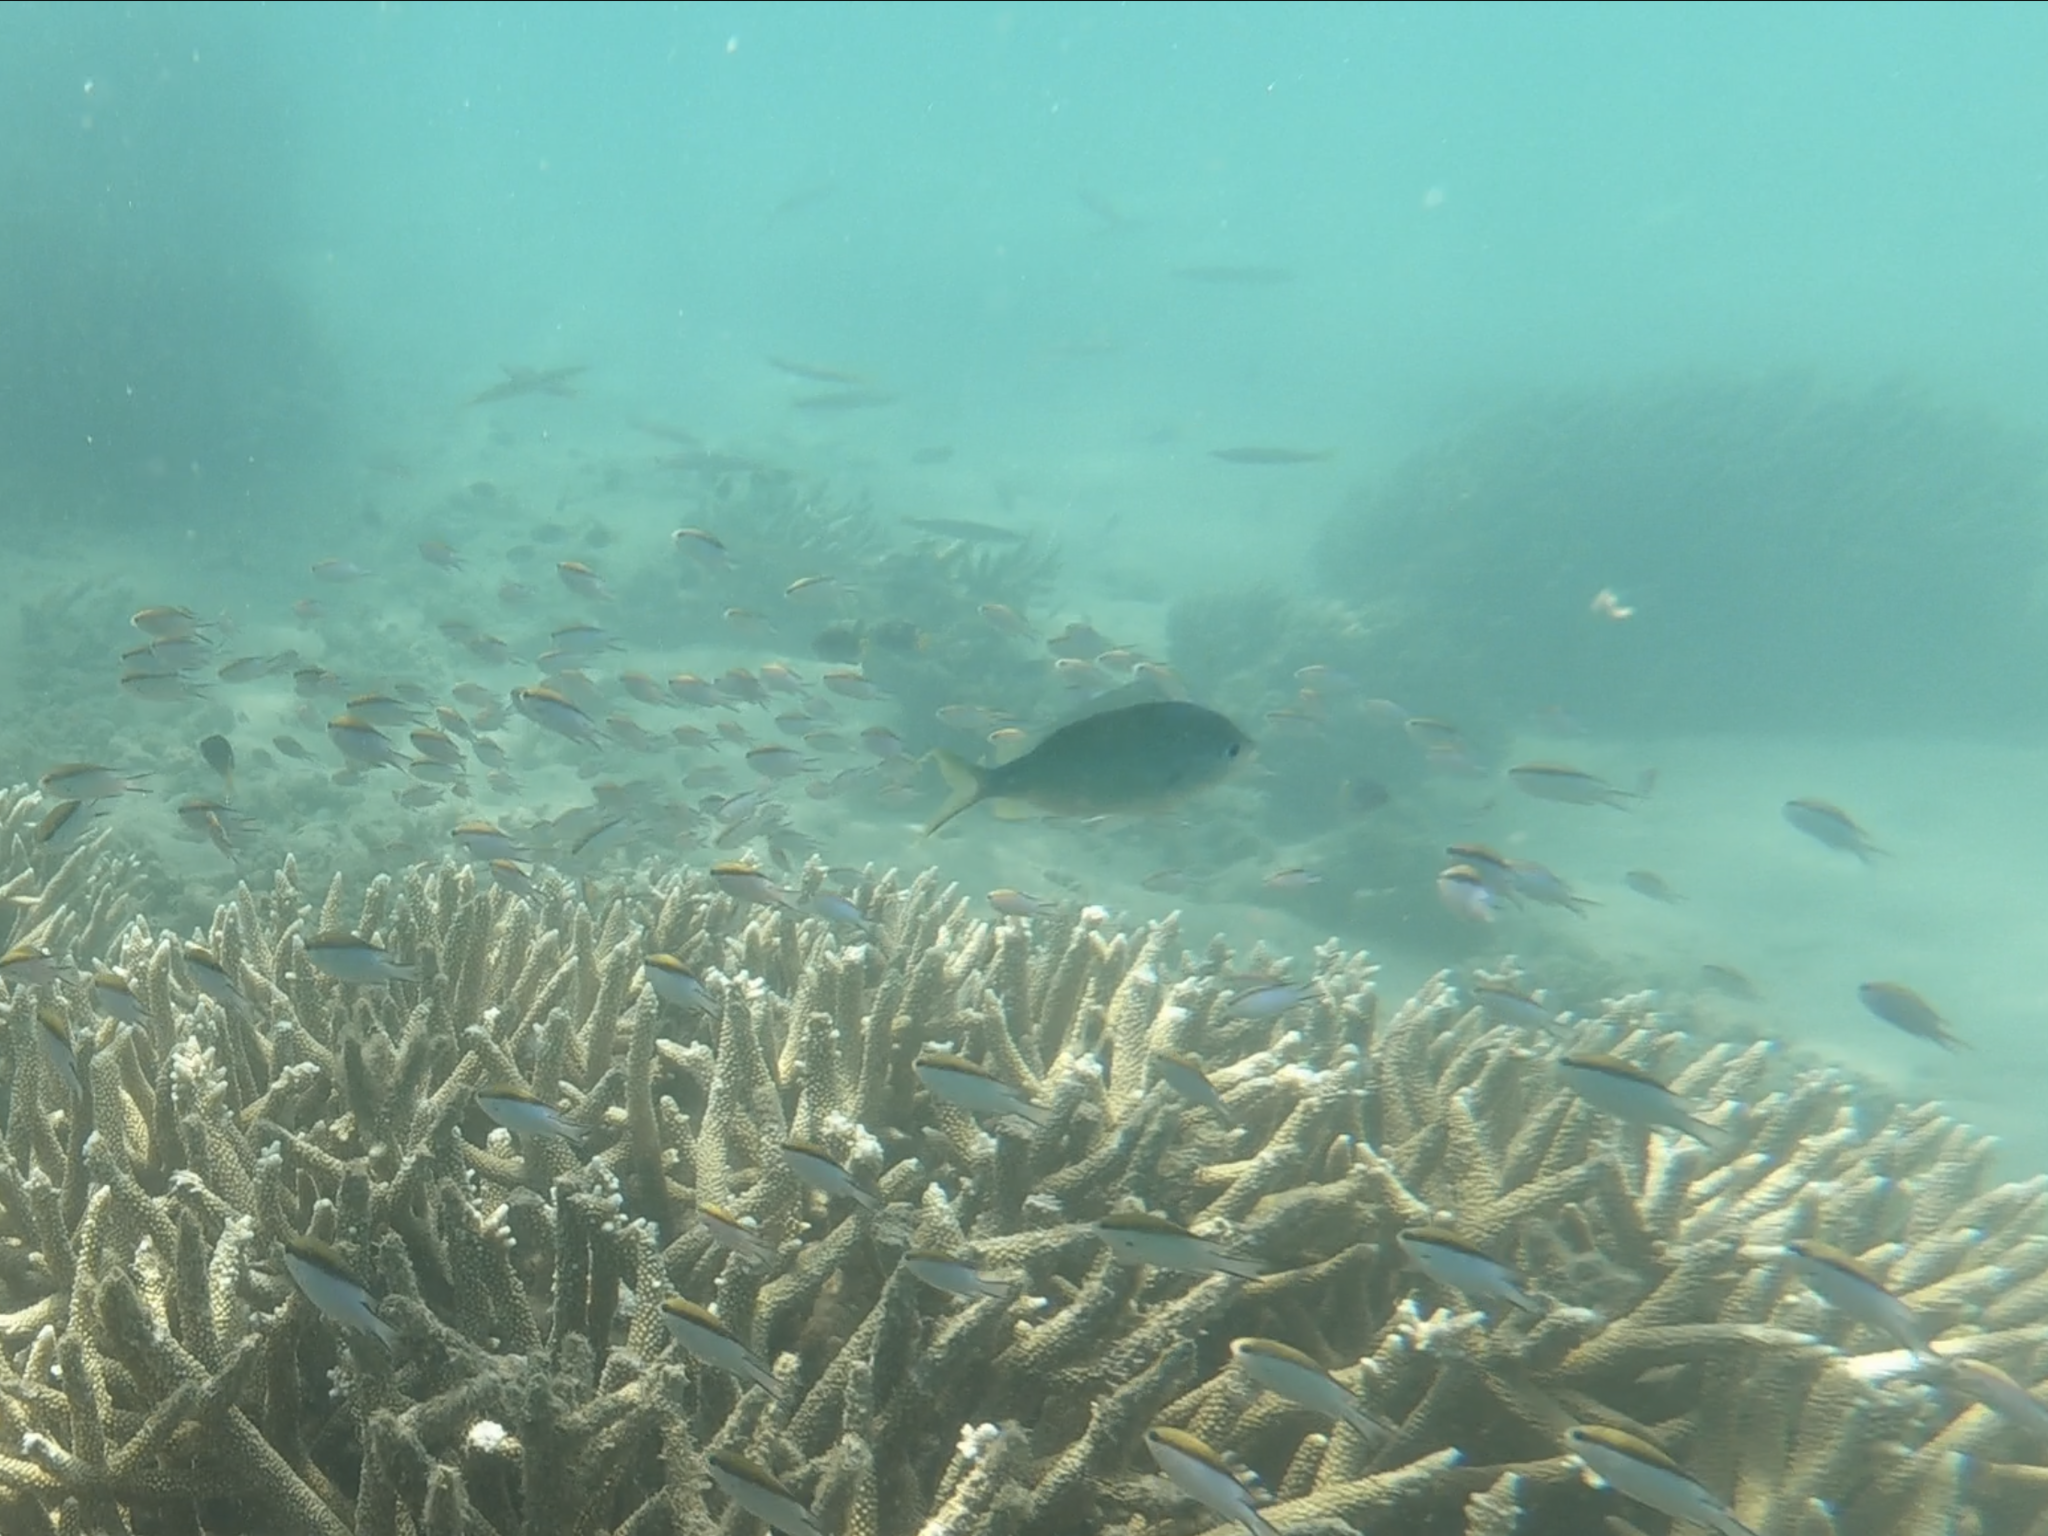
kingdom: Animalia
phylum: Chordata
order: Perciformes
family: Pomacentridae
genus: Chromis
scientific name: Chromis atripectoralis
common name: Black-axil chromis
